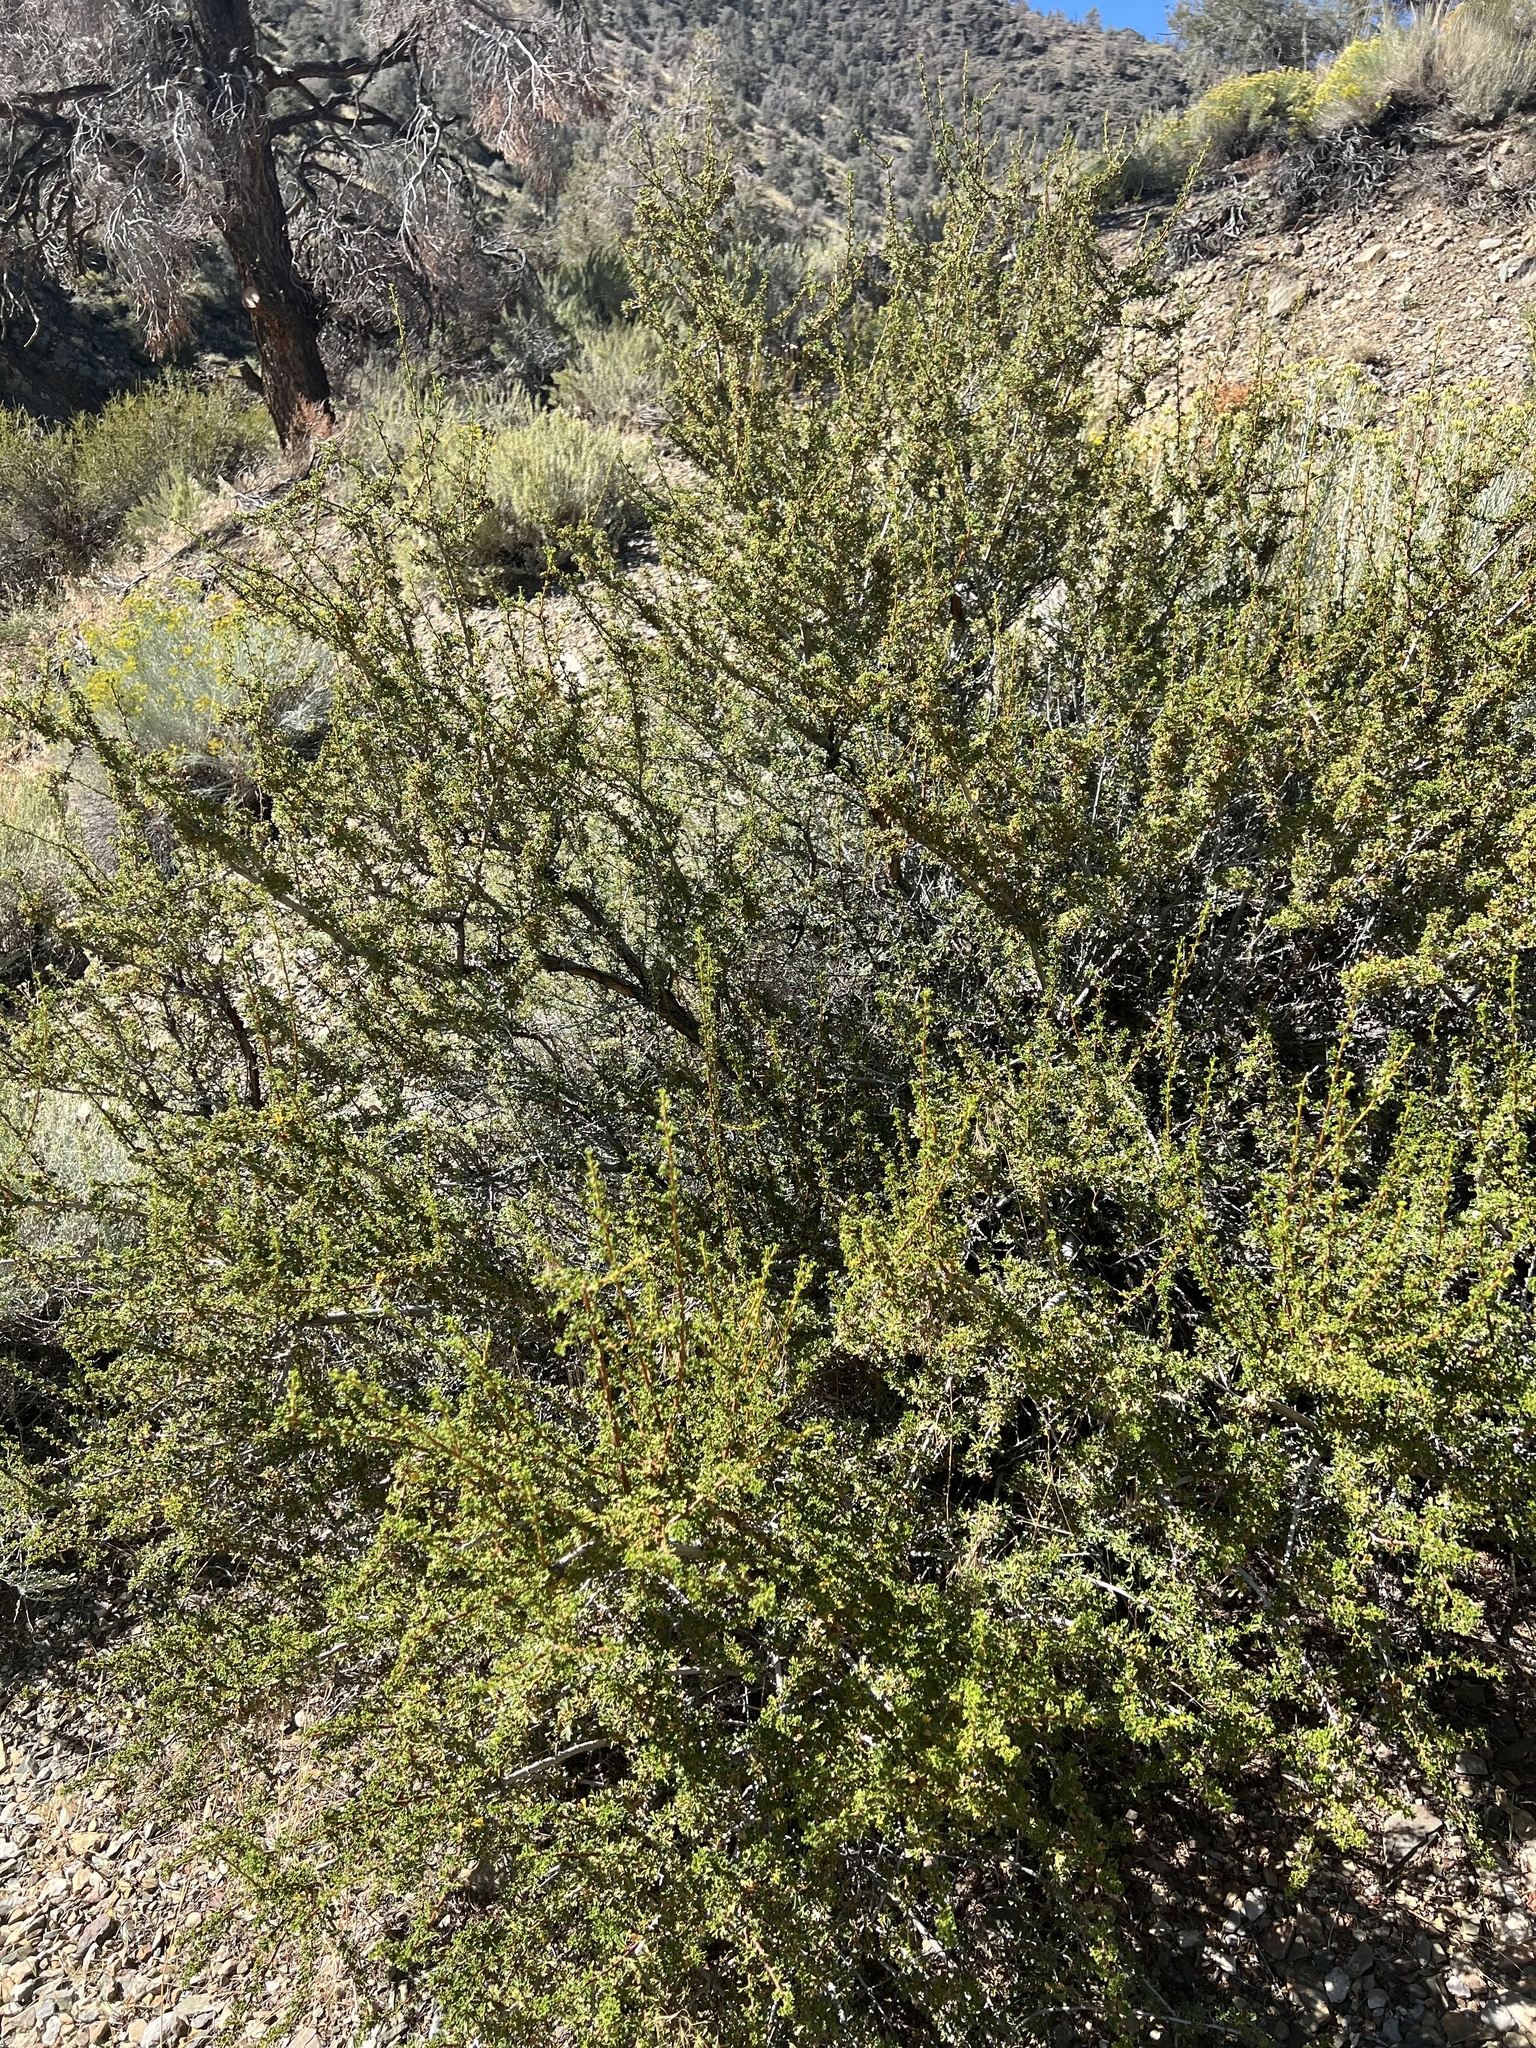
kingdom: Plantae
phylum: Tracheophyta
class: Magnoliopsida
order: Rosales
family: Rosaceae
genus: Purshia
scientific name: Purshia glandulosa
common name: Desert bitterbrush
